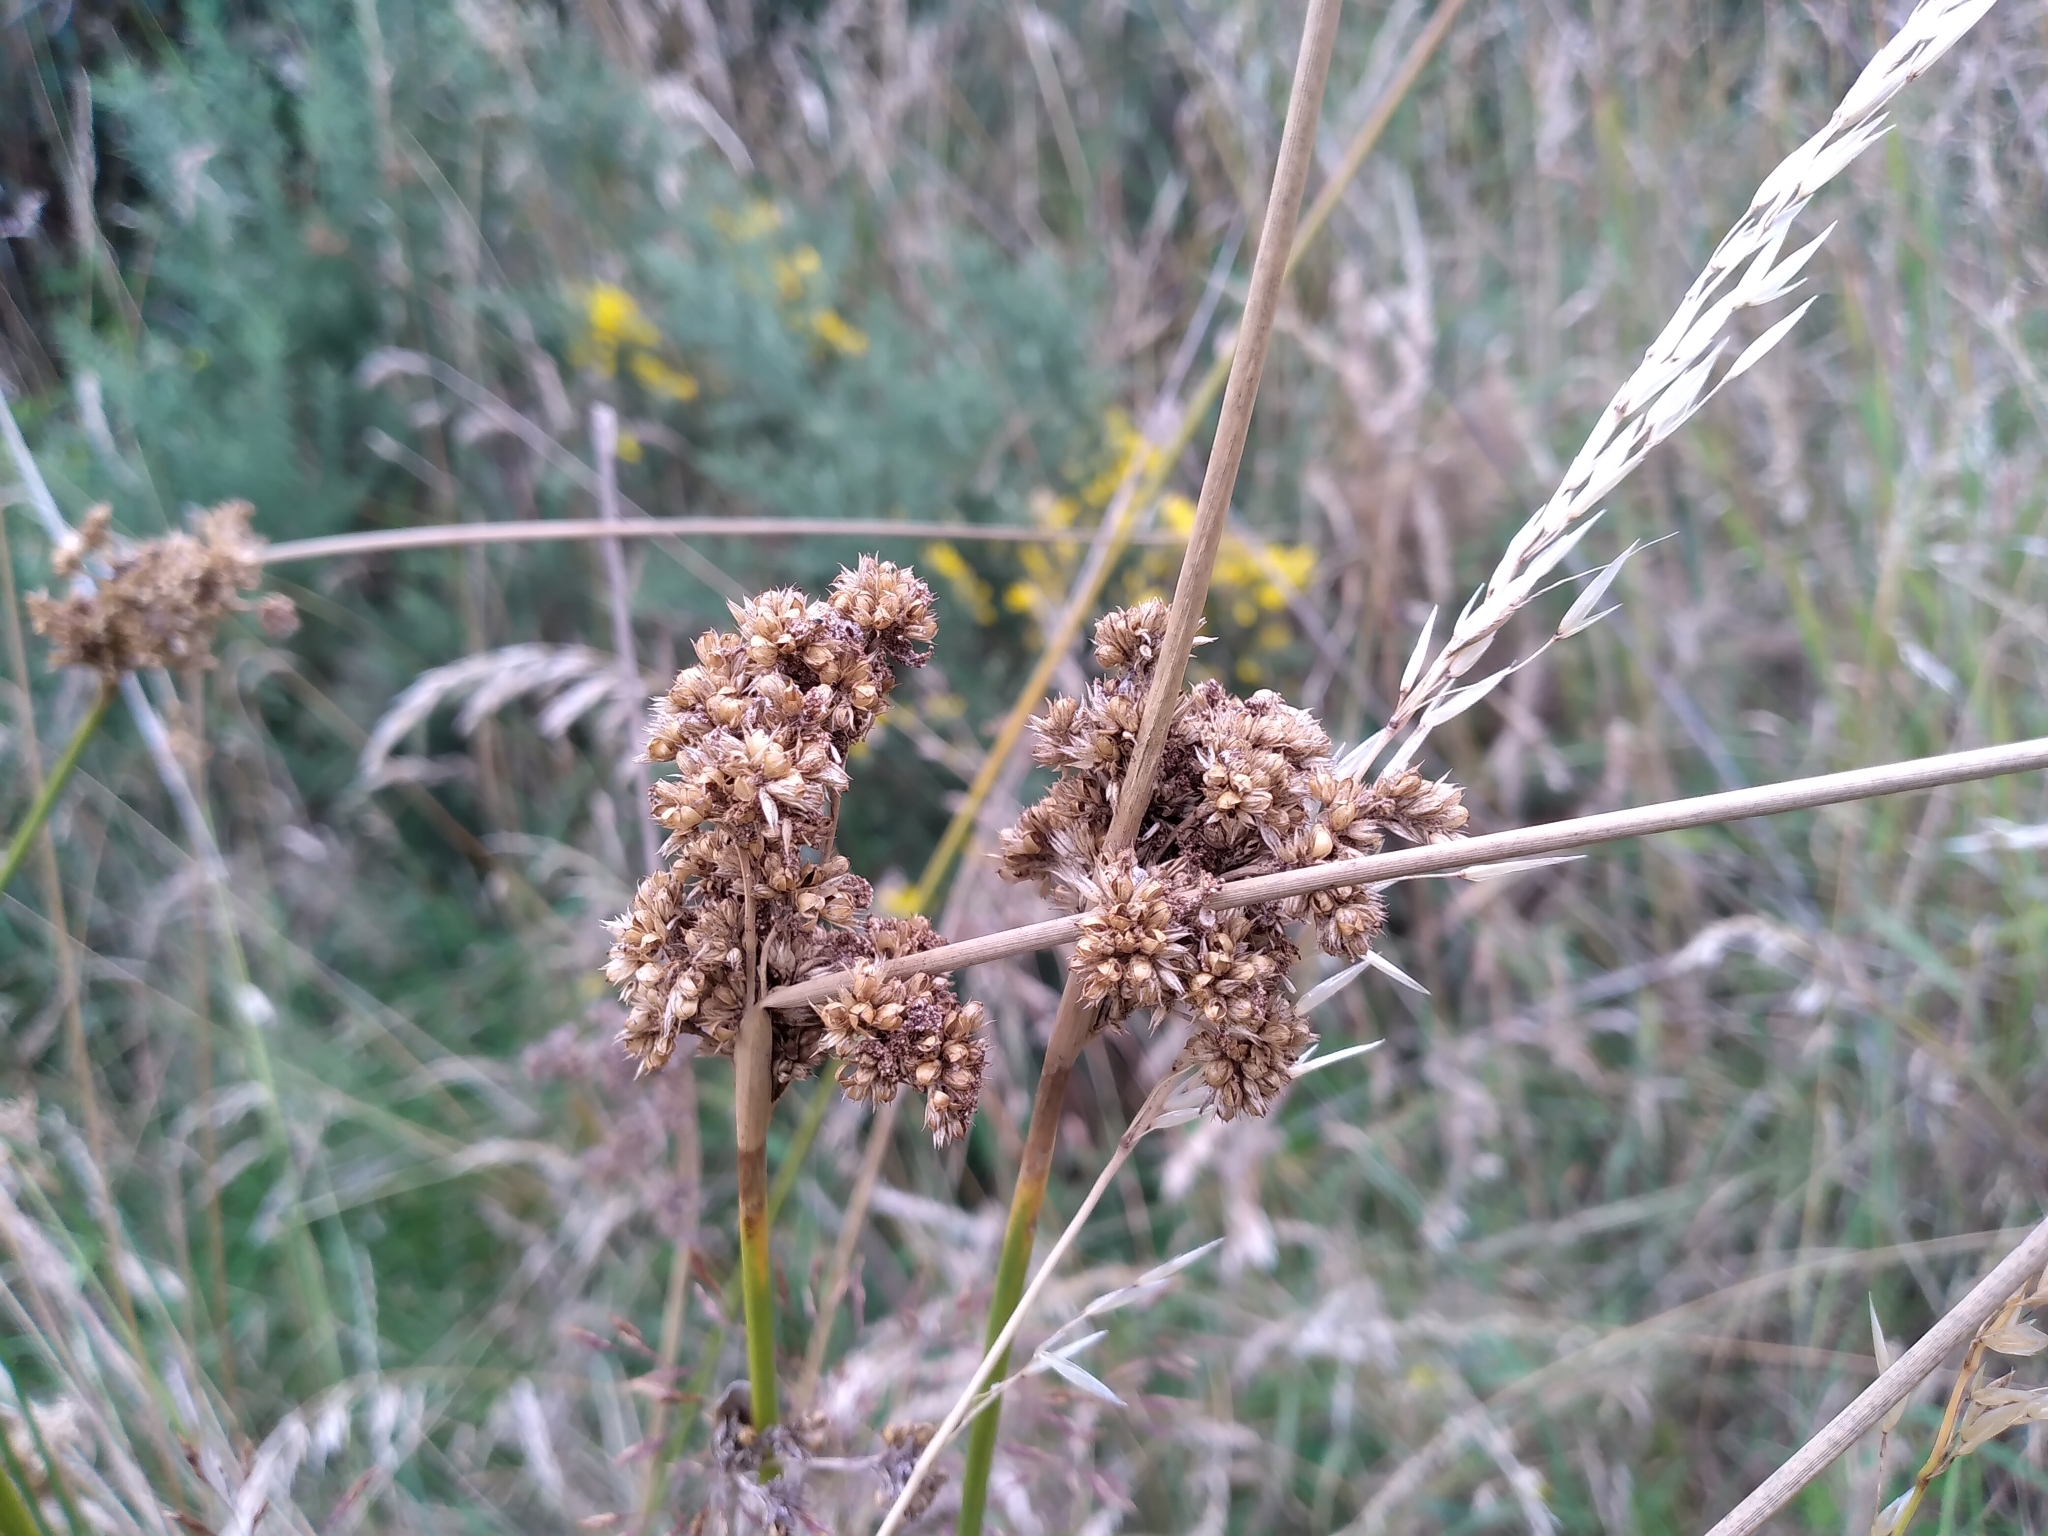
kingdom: Plantae
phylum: Tracheophyta
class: Liliopsida
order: Poales
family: Juncaceae
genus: Juncus
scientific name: Juncus australis
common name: Austral rush
